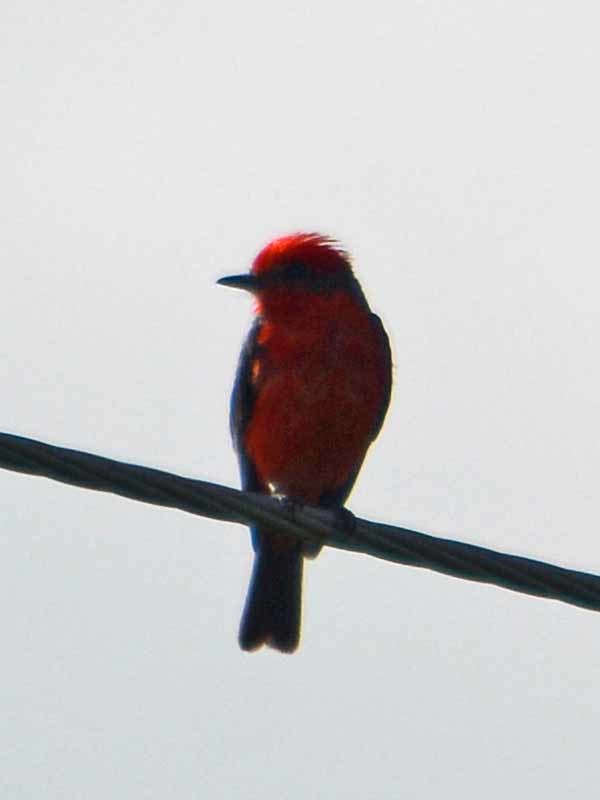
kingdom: Animalia
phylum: Chordata
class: Aves
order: Passeriformes
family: Tyrannidae
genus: Pyrocephalus
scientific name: Pyrocephalus rubinus
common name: Vermilion flycatcher
